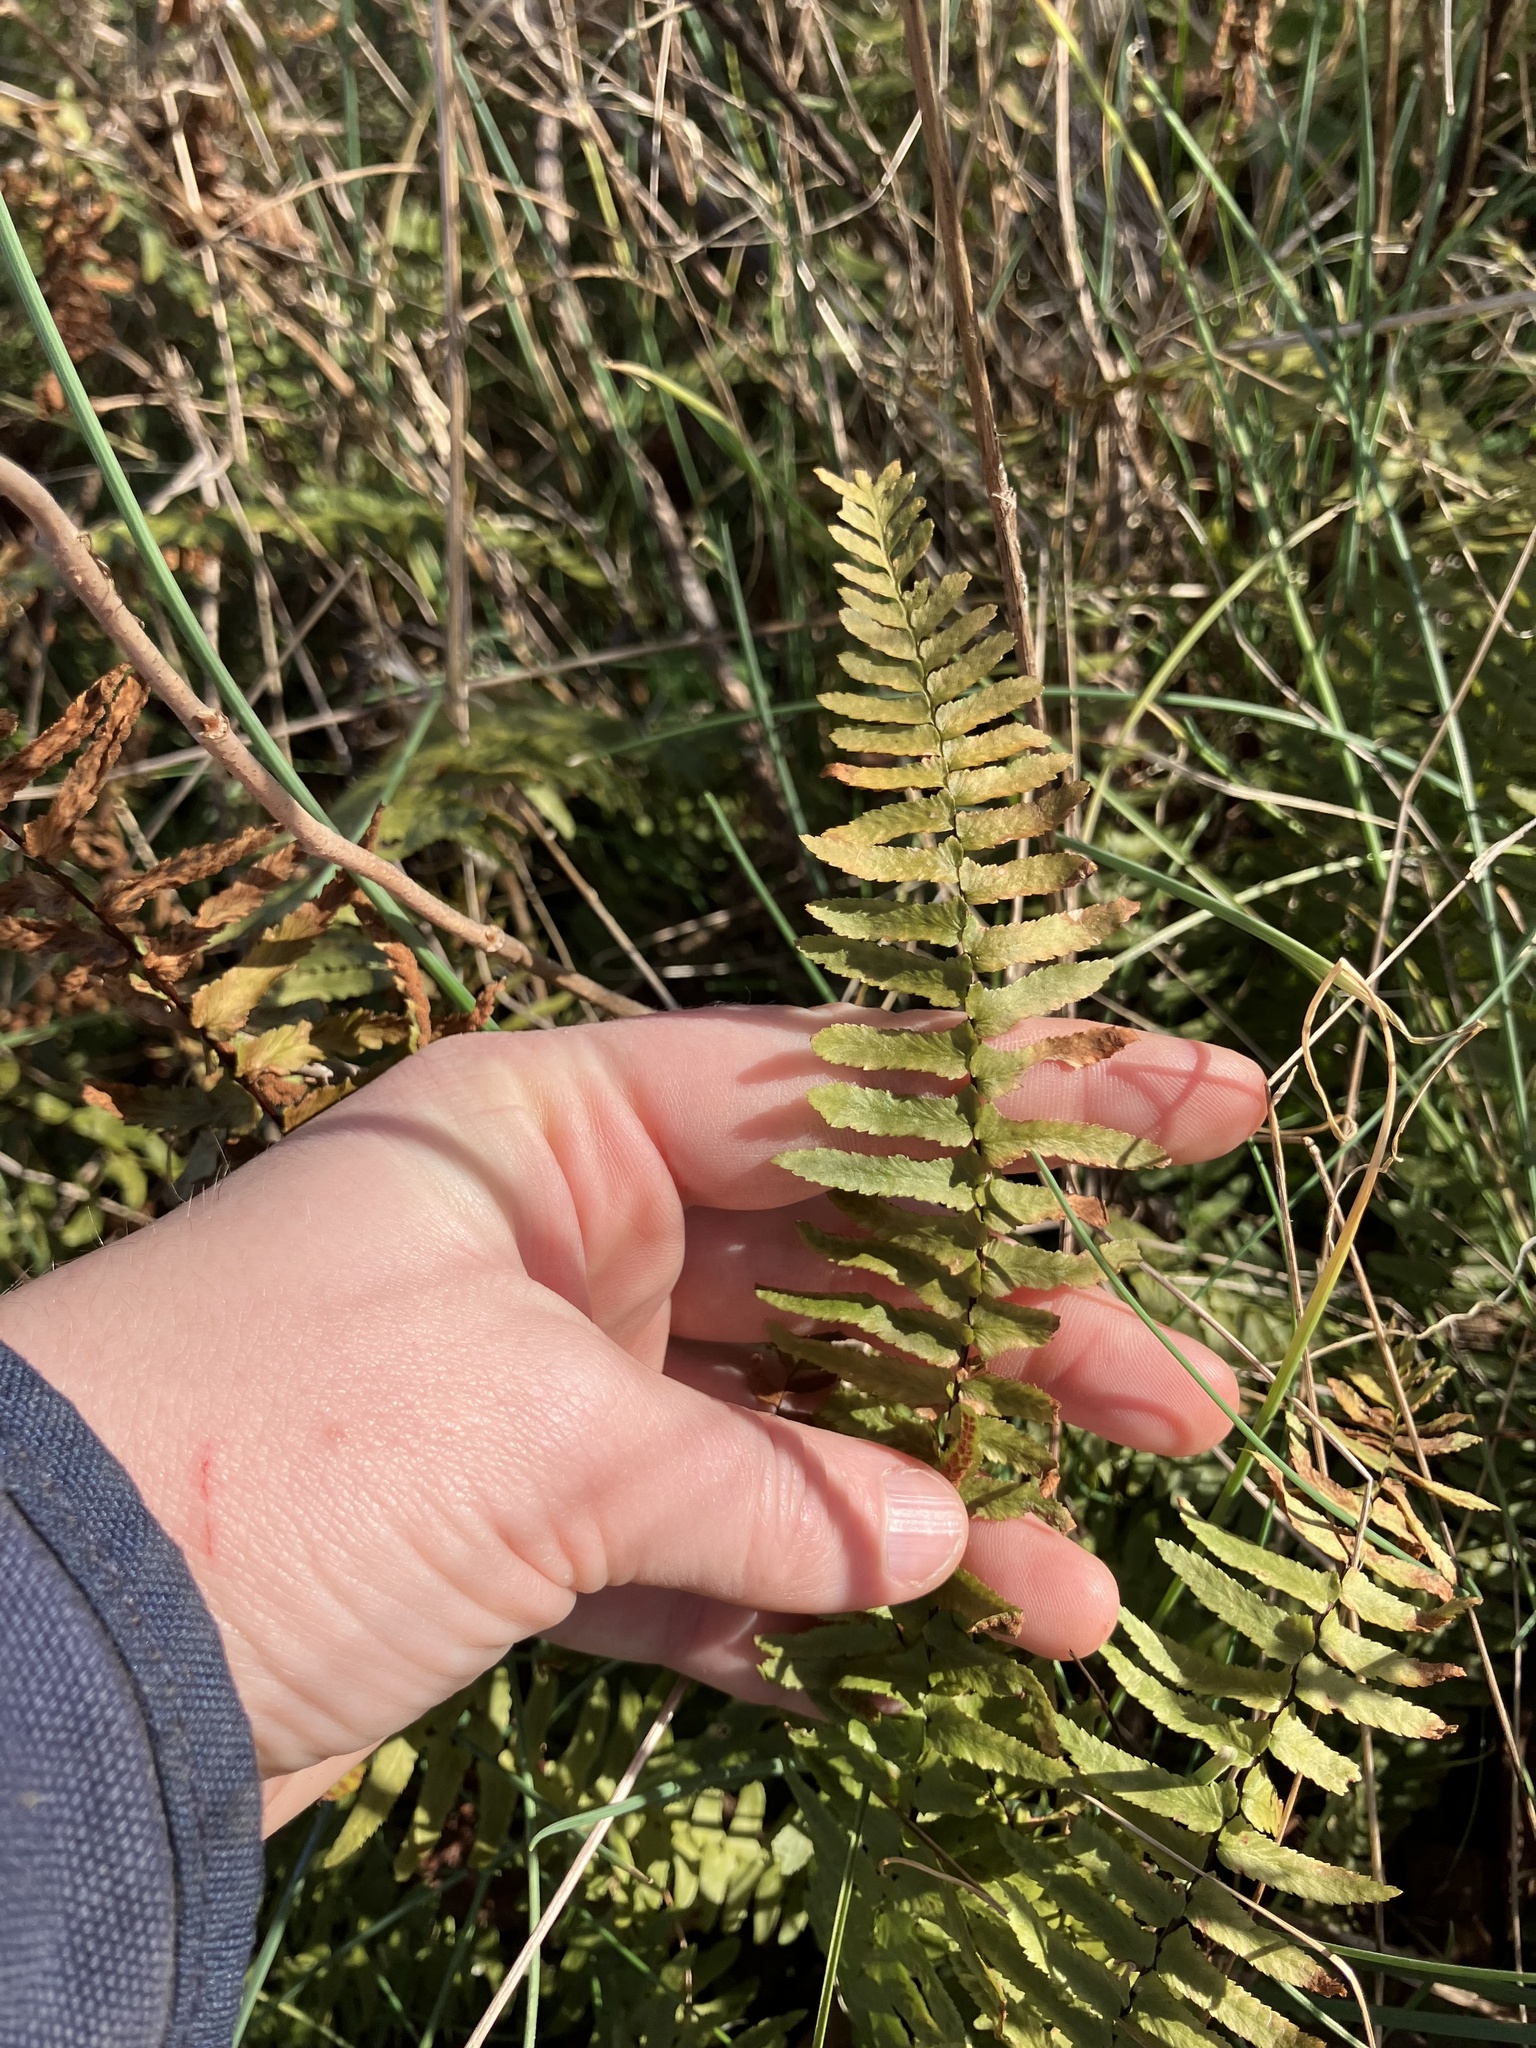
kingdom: Plantae
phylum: Tracheophyta
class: Polypodiopsida
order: Polypodiales
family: Aspleniaceae
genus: Asplenium
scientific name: Asplenium platyneuron
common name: Ebony spleenwort
